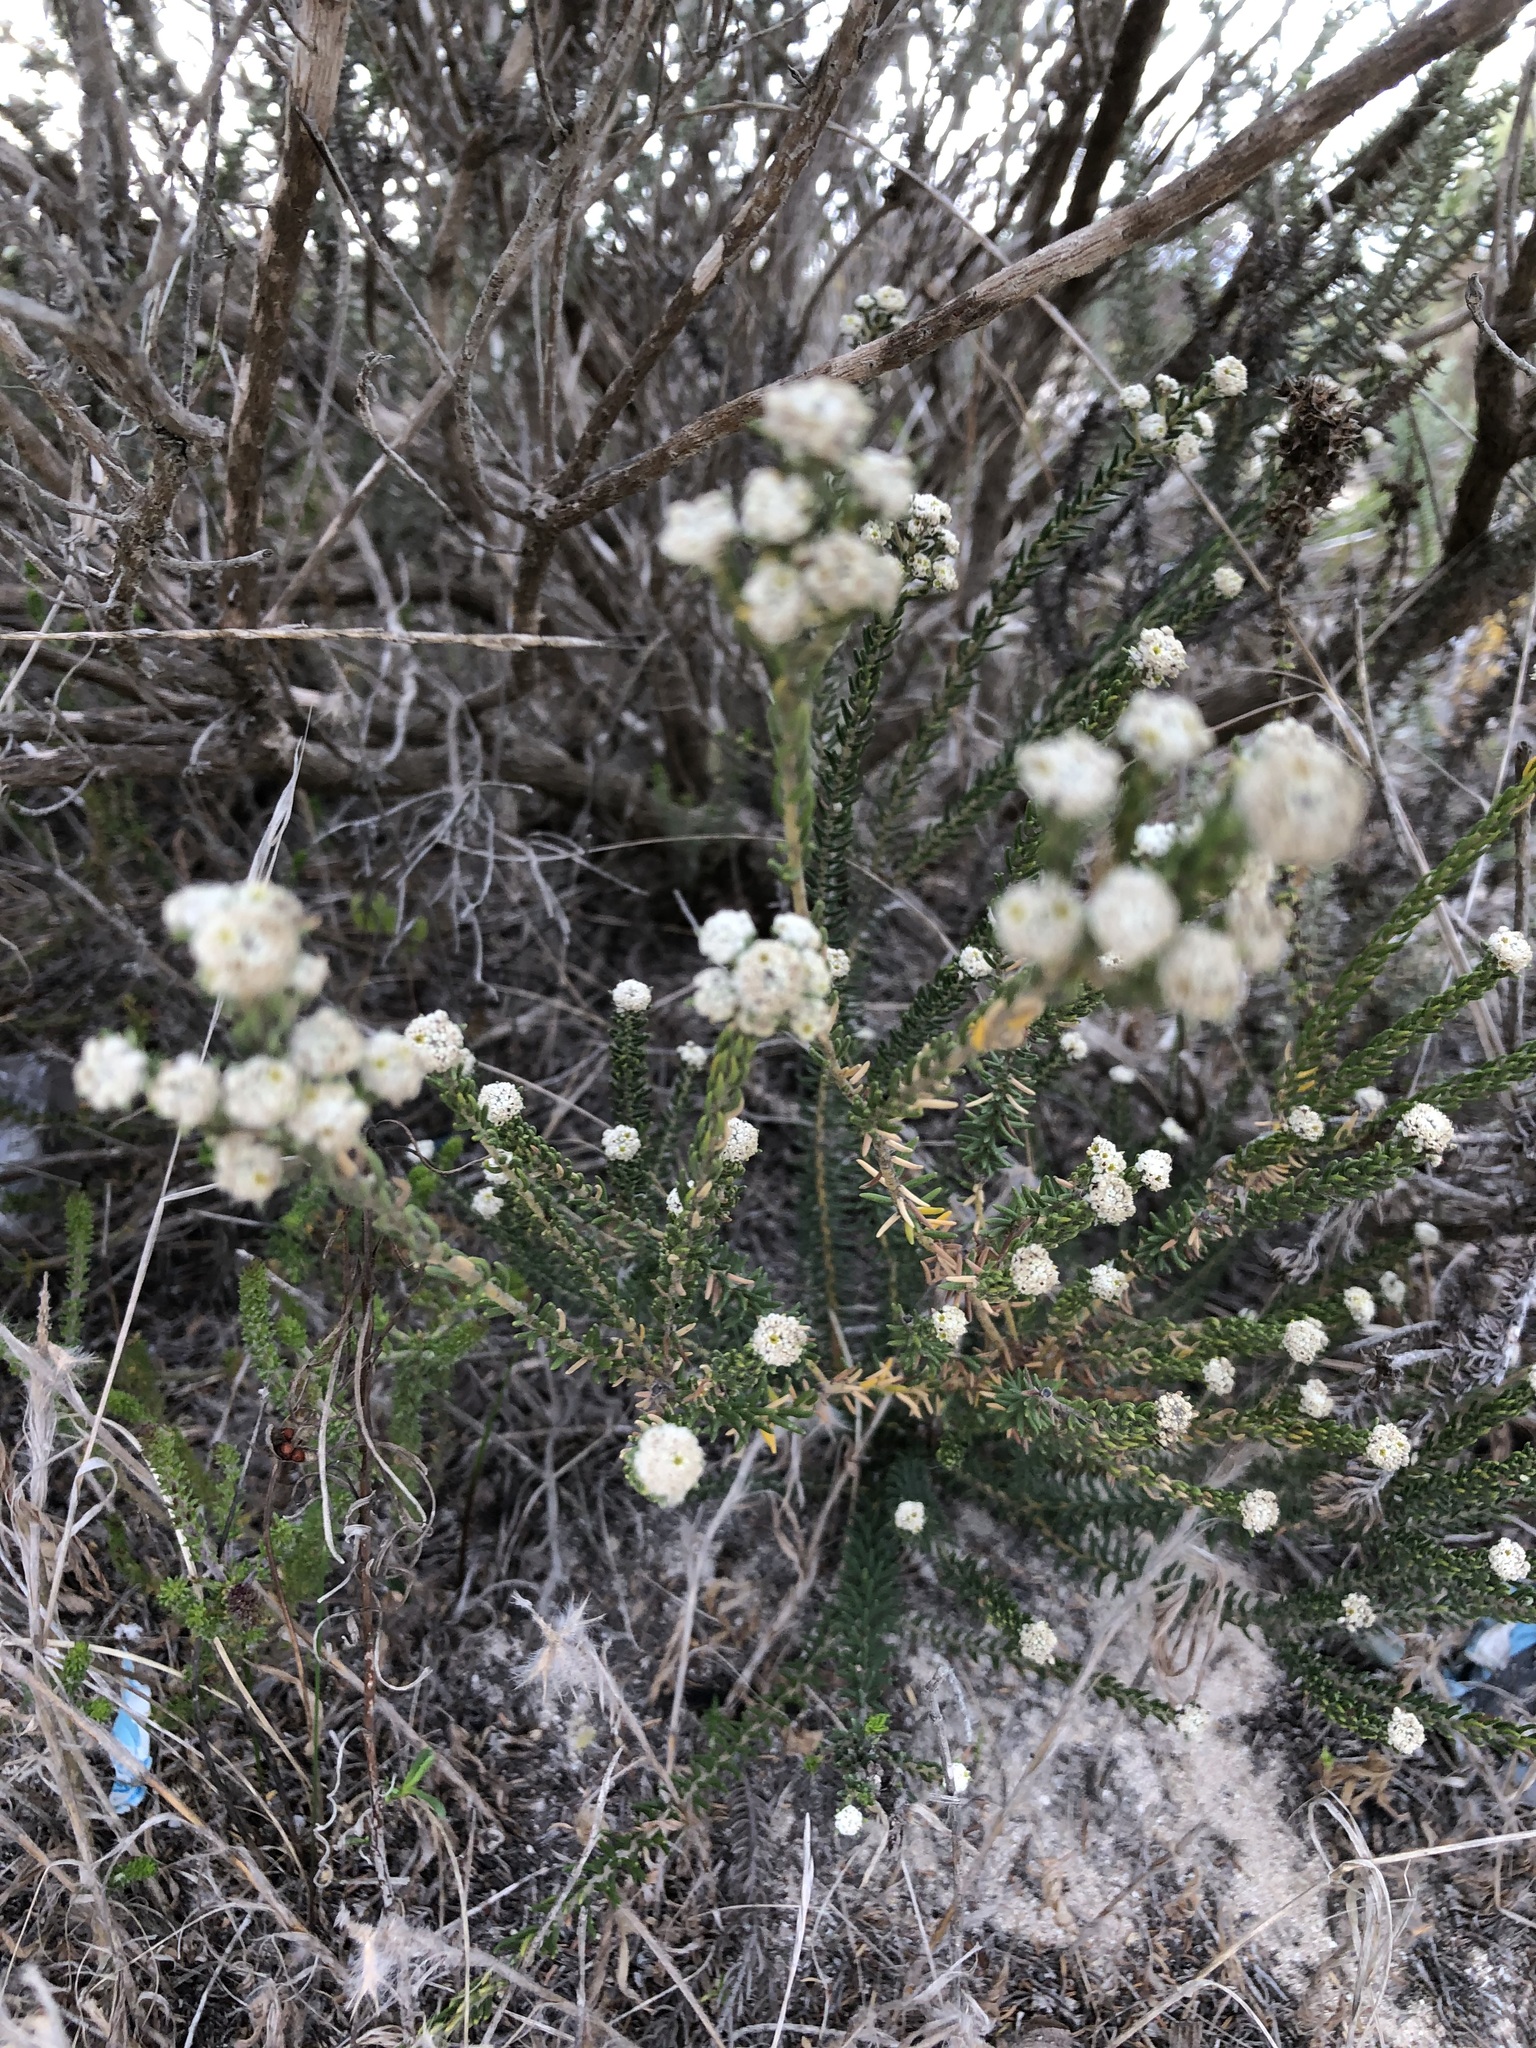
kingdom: Plantae
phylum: Tracheophyta
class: Magnoliopsida
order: Rosales
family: Rhamnaceae
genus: Phylica
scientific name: Phylica ericoides
